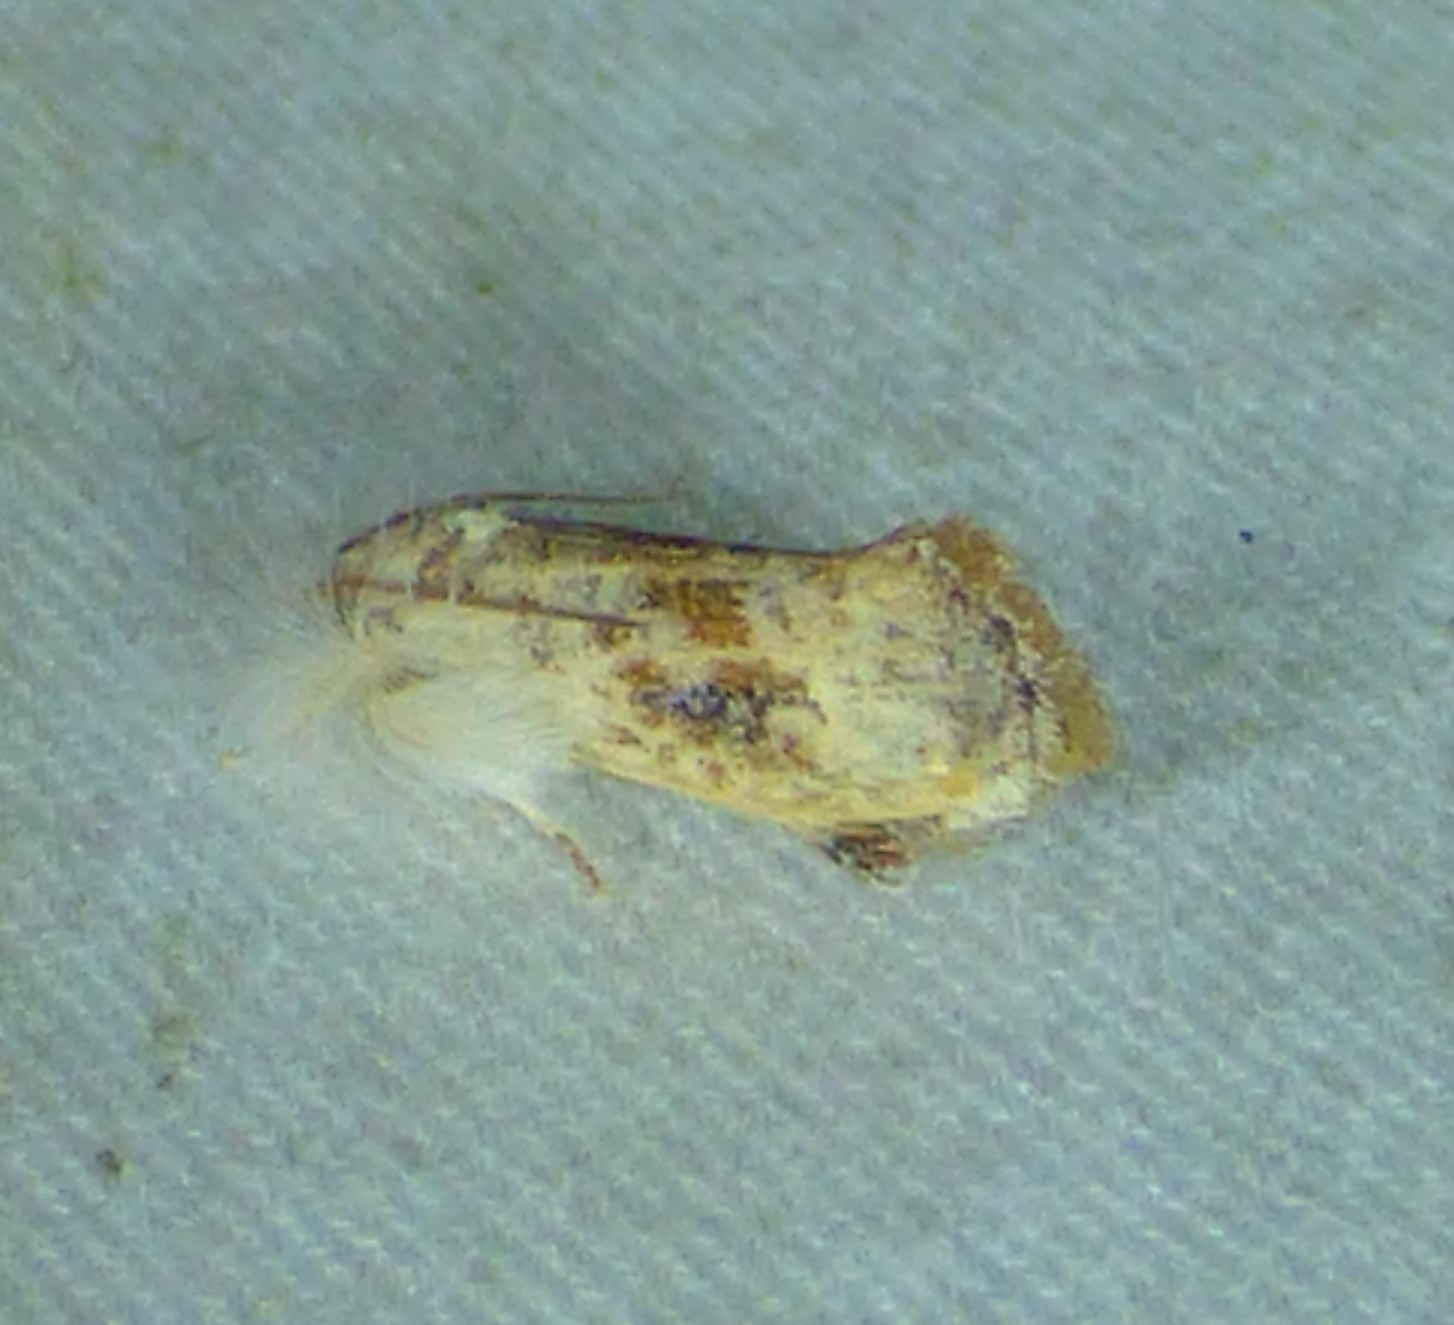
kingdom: Animalia
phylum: Arthropoda
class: Insecta
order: Lepidoptera
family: Tineidae
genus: Acrolophus
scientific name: Acrolophus mycetophagus
